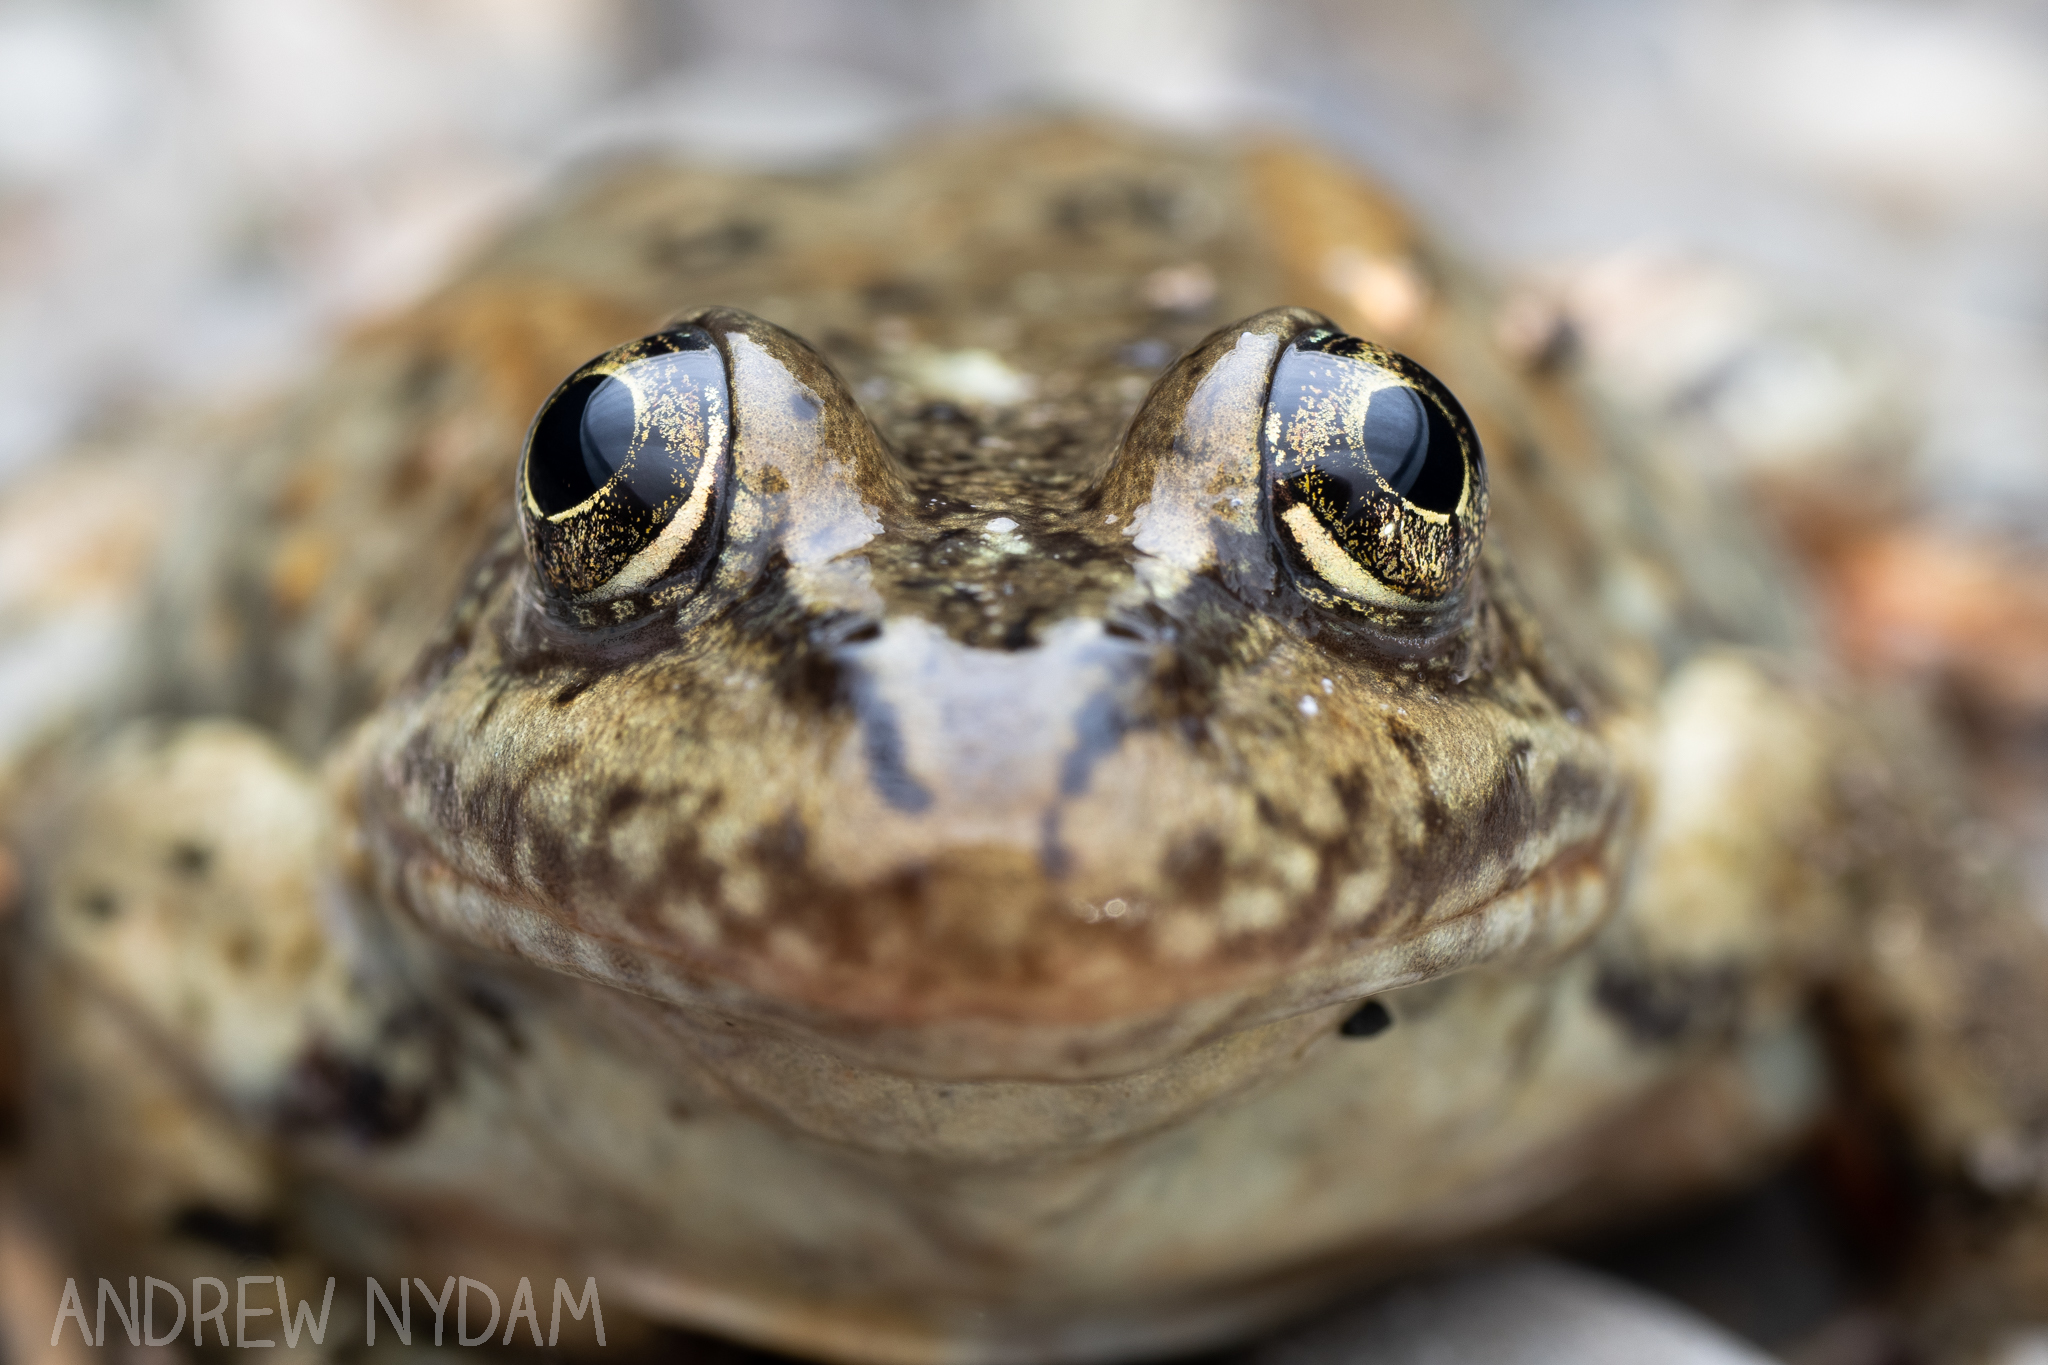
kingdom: Animalia
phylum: Chordata
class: Amphibia
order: Anura
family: Ranidae
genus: Rana
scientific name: Rana luteiventris
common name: Columbia spotted frog
